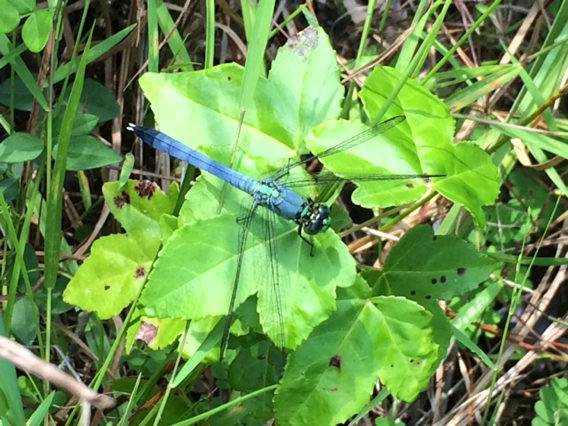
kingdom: Animalia
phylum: Arthropoda
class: Insecta
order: Odonata
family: Libellulidae
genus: Erythemis
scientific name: Erythemis simplicicollis
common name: Eastern pondhawk
